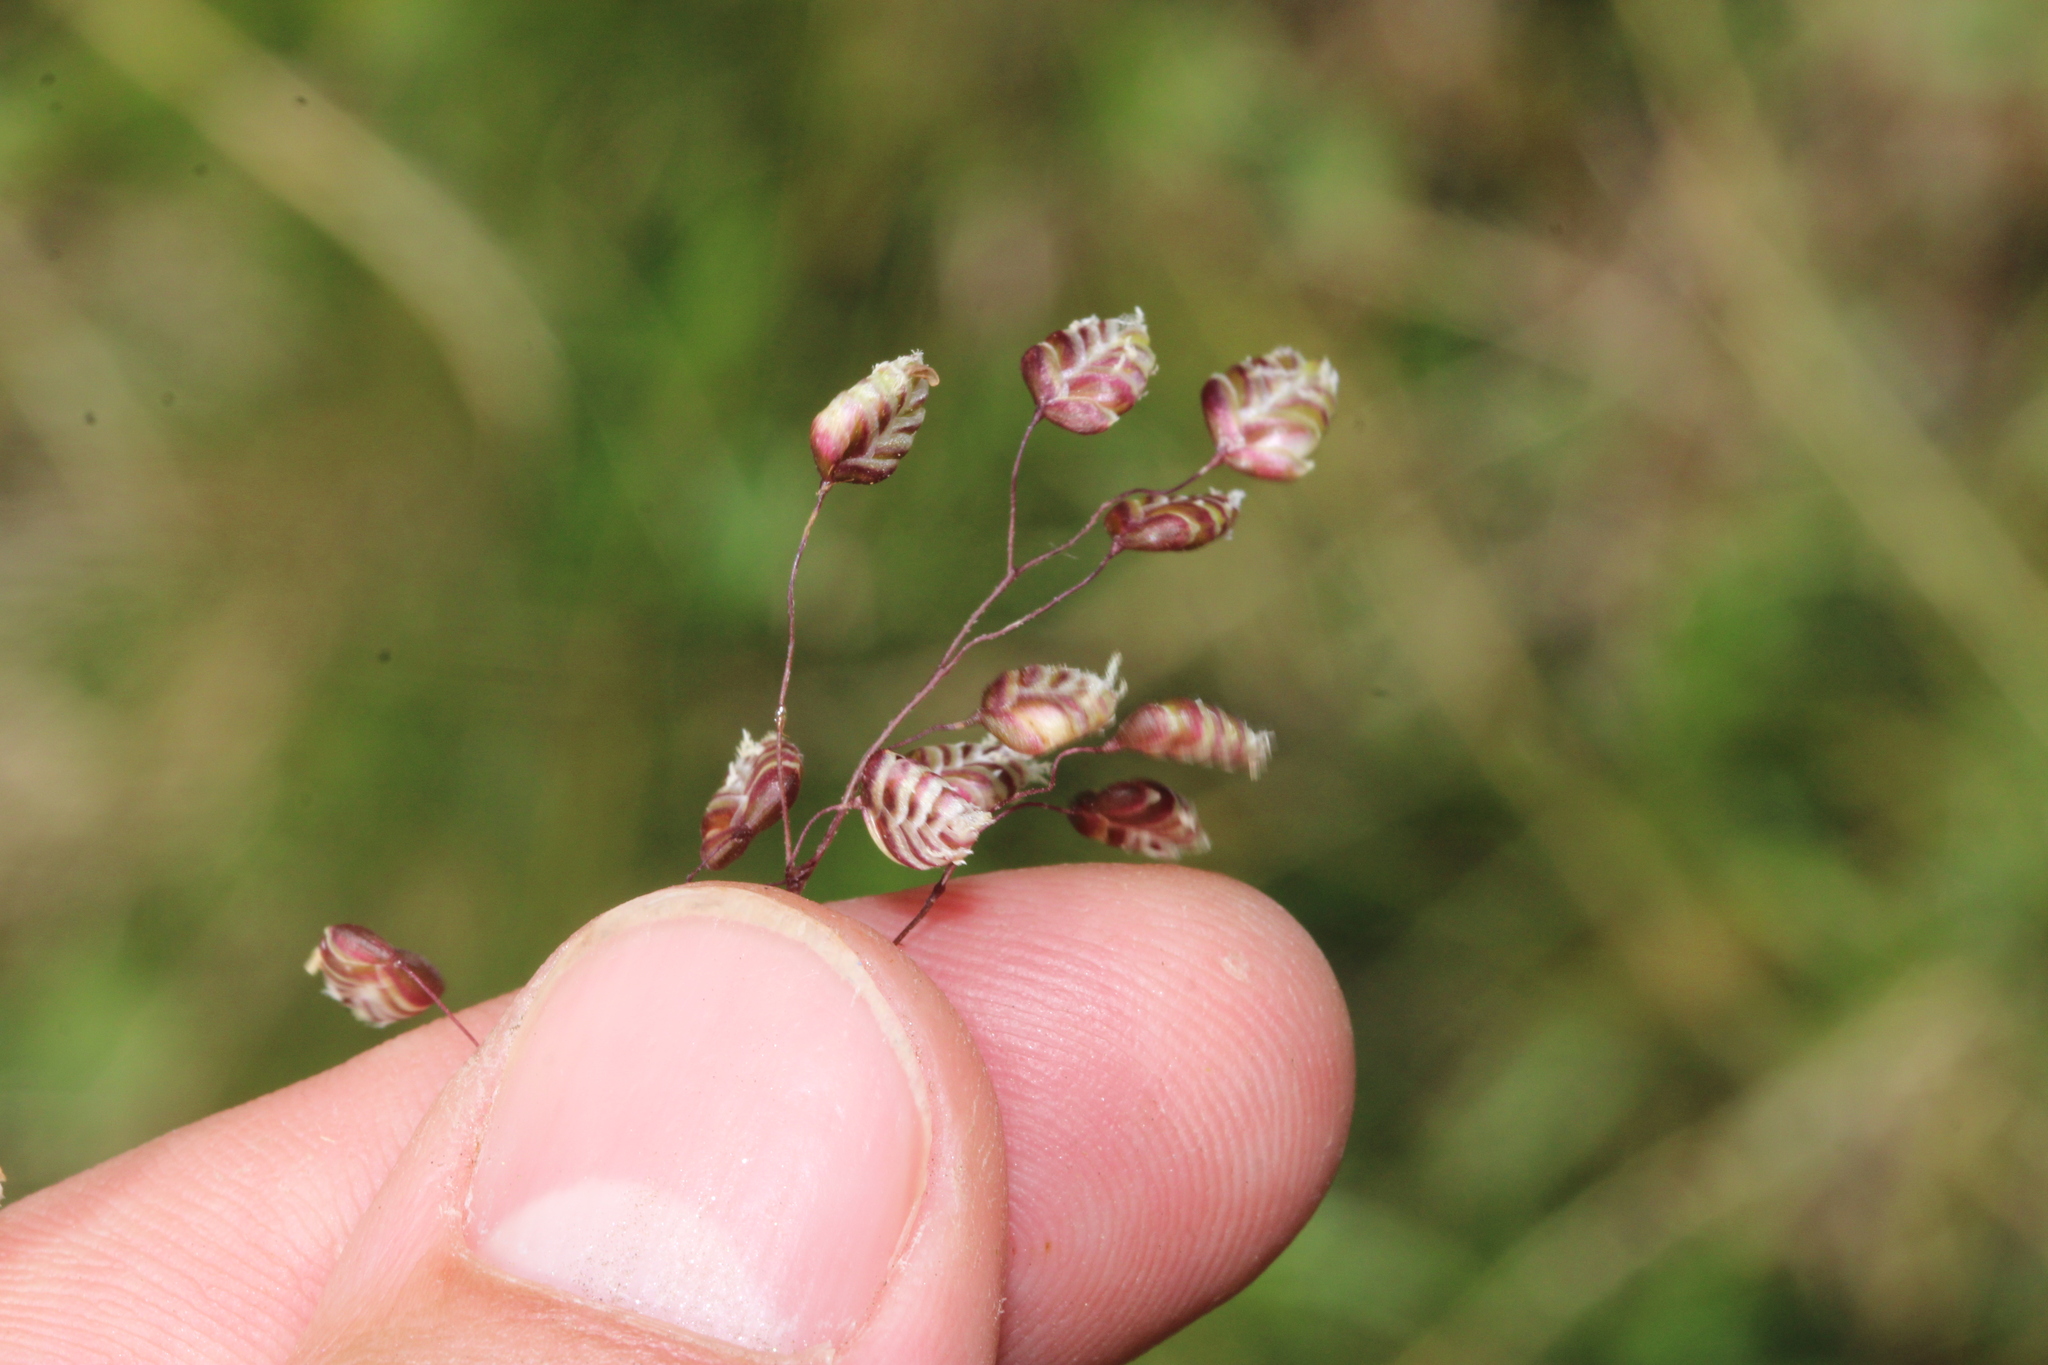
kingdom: Plantae
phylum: Tracheophyta
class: Liliopsida
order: Poales
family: Poaceae
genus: Briza
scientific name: Briza media
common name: Quaking grass
